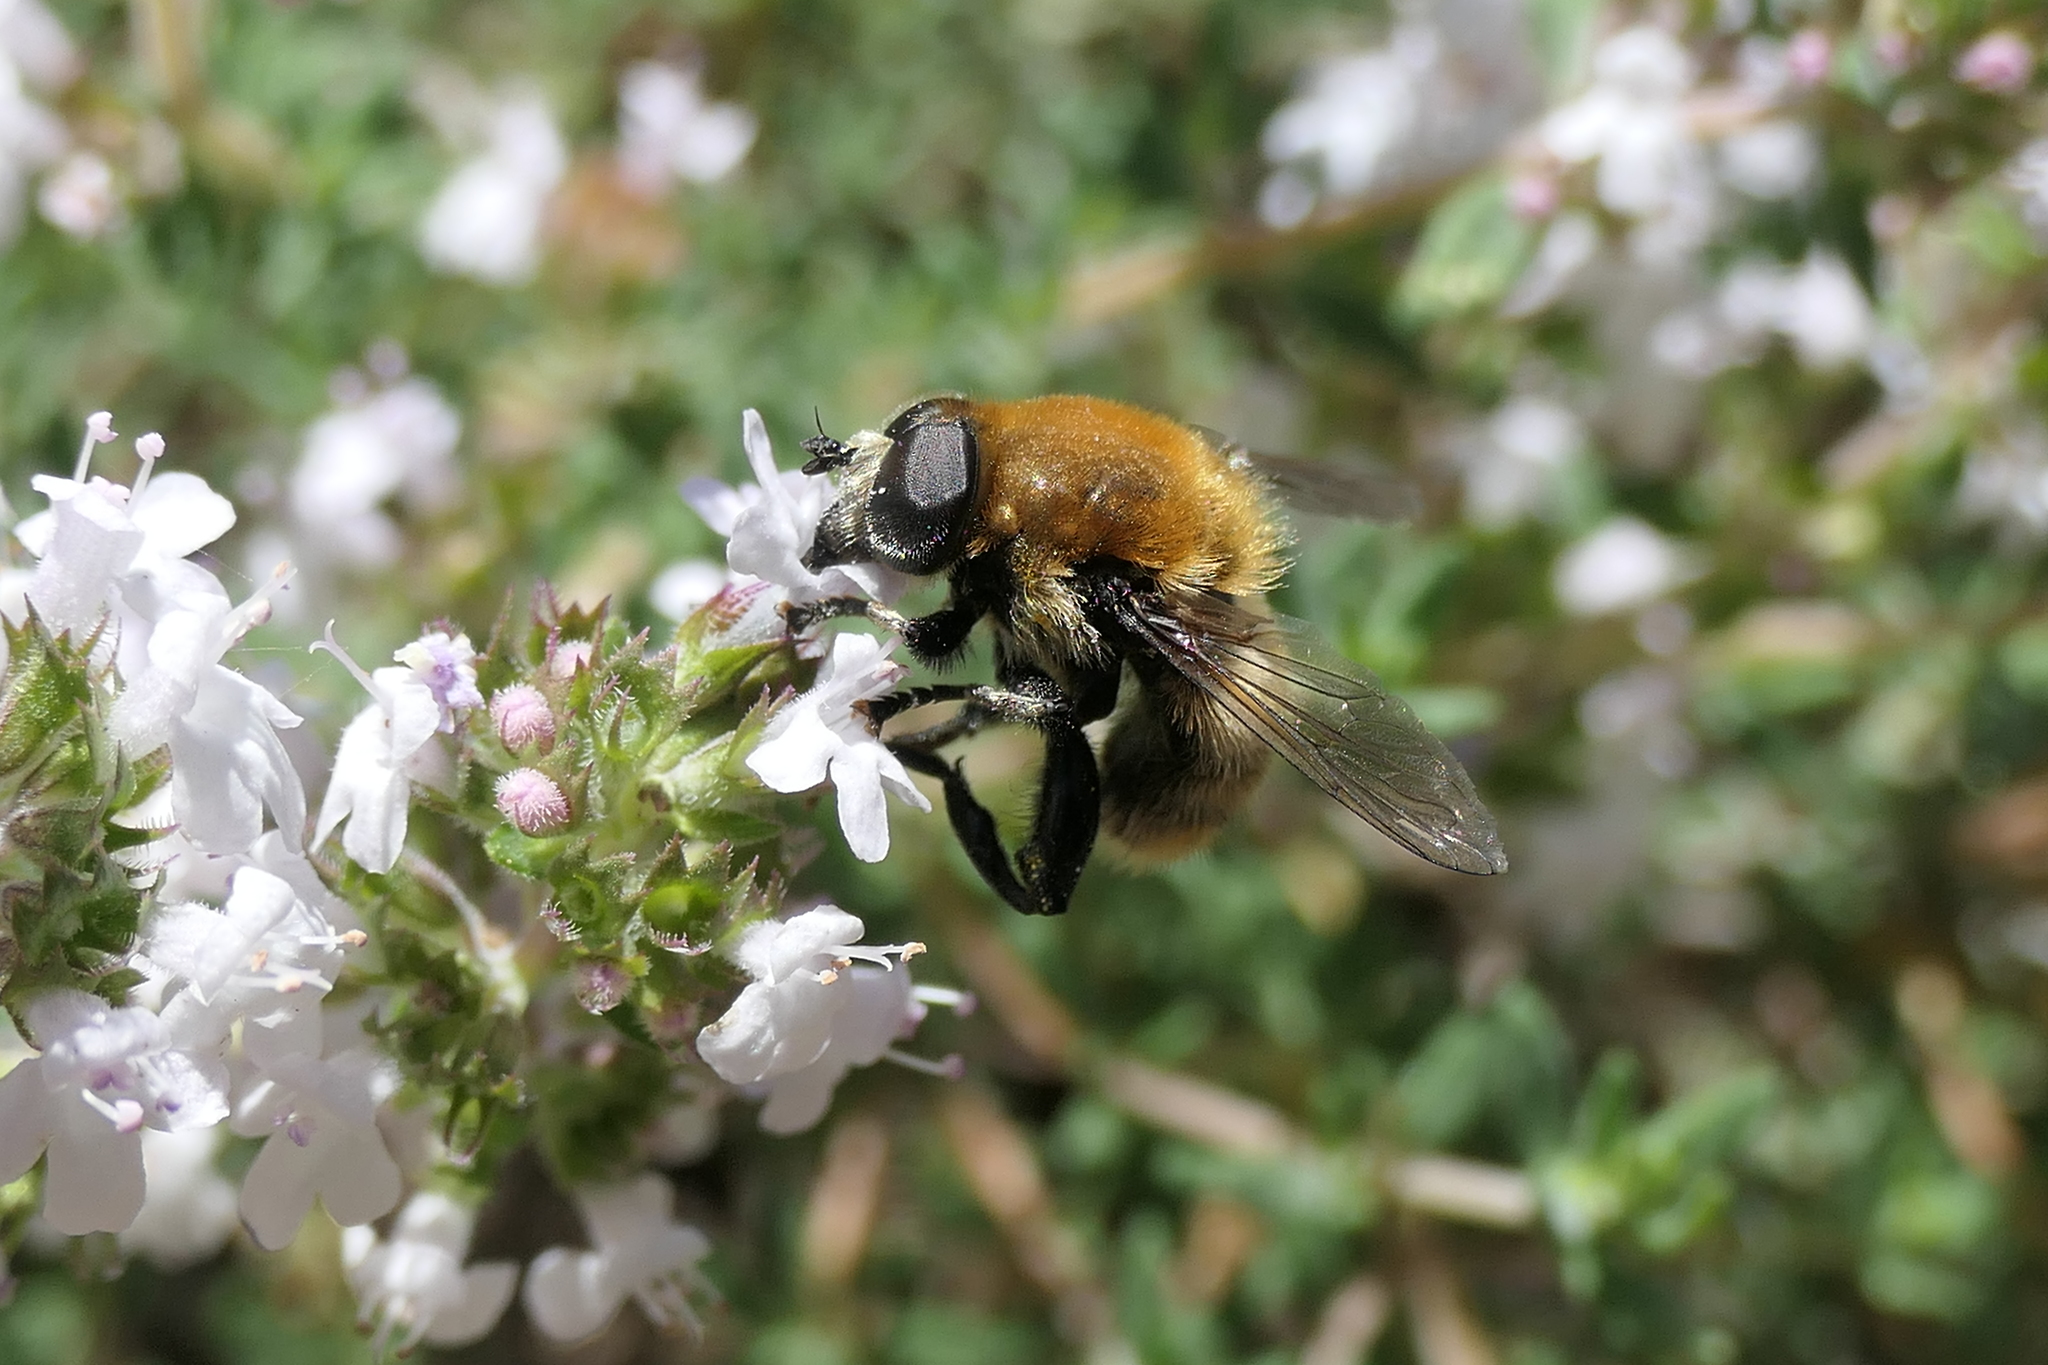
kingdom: Animalia
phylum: Arthropoda
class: Insecta
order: Diptera
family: Syrphidae
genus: Merodon
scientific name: Merodon equestris
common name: Greater bulb-fly
